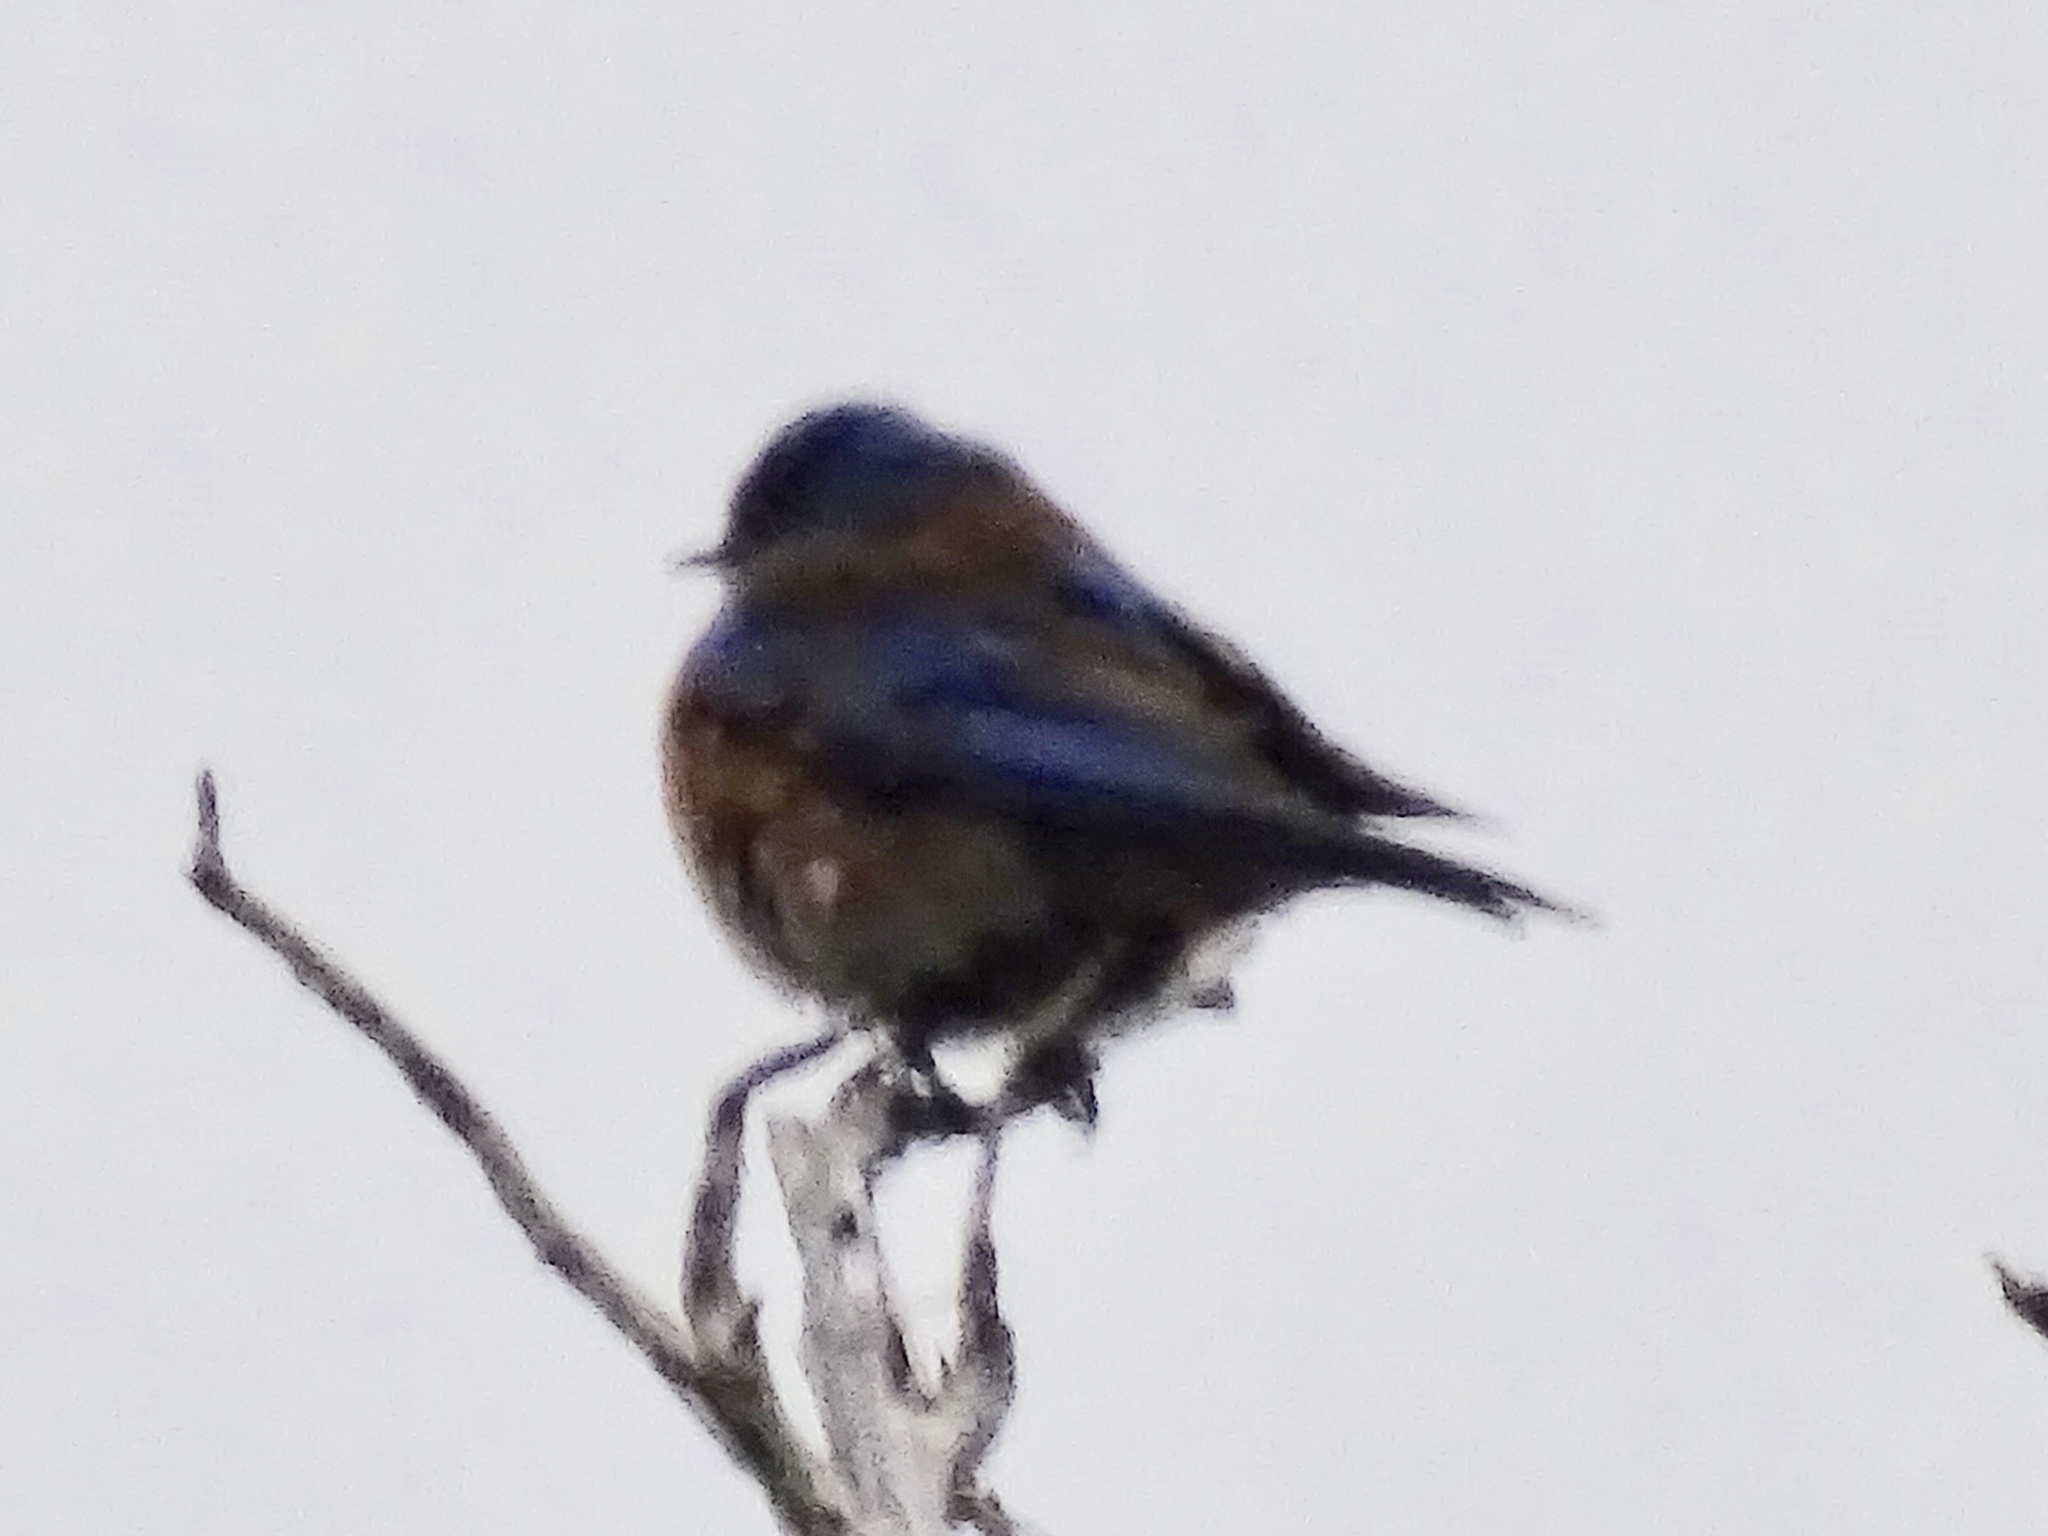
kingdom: Animalia
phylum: Chordata
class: Aves
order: Passeriformes
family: Turdidae
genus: Sialia
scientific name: Sialia mexicana
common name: Western bluebird
